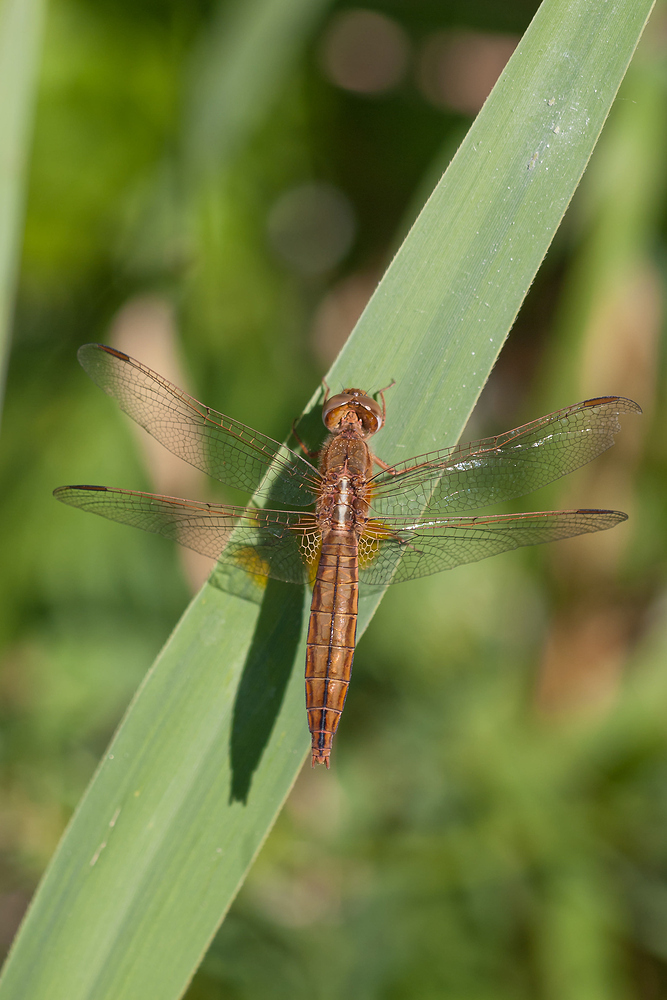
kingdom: Animalia
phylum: Arthropoda
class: Insecta
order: Odonata
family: Libellulidae
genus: Crocothemis
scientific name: Crocothemis erythraea
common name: Scarlet dragonfly
